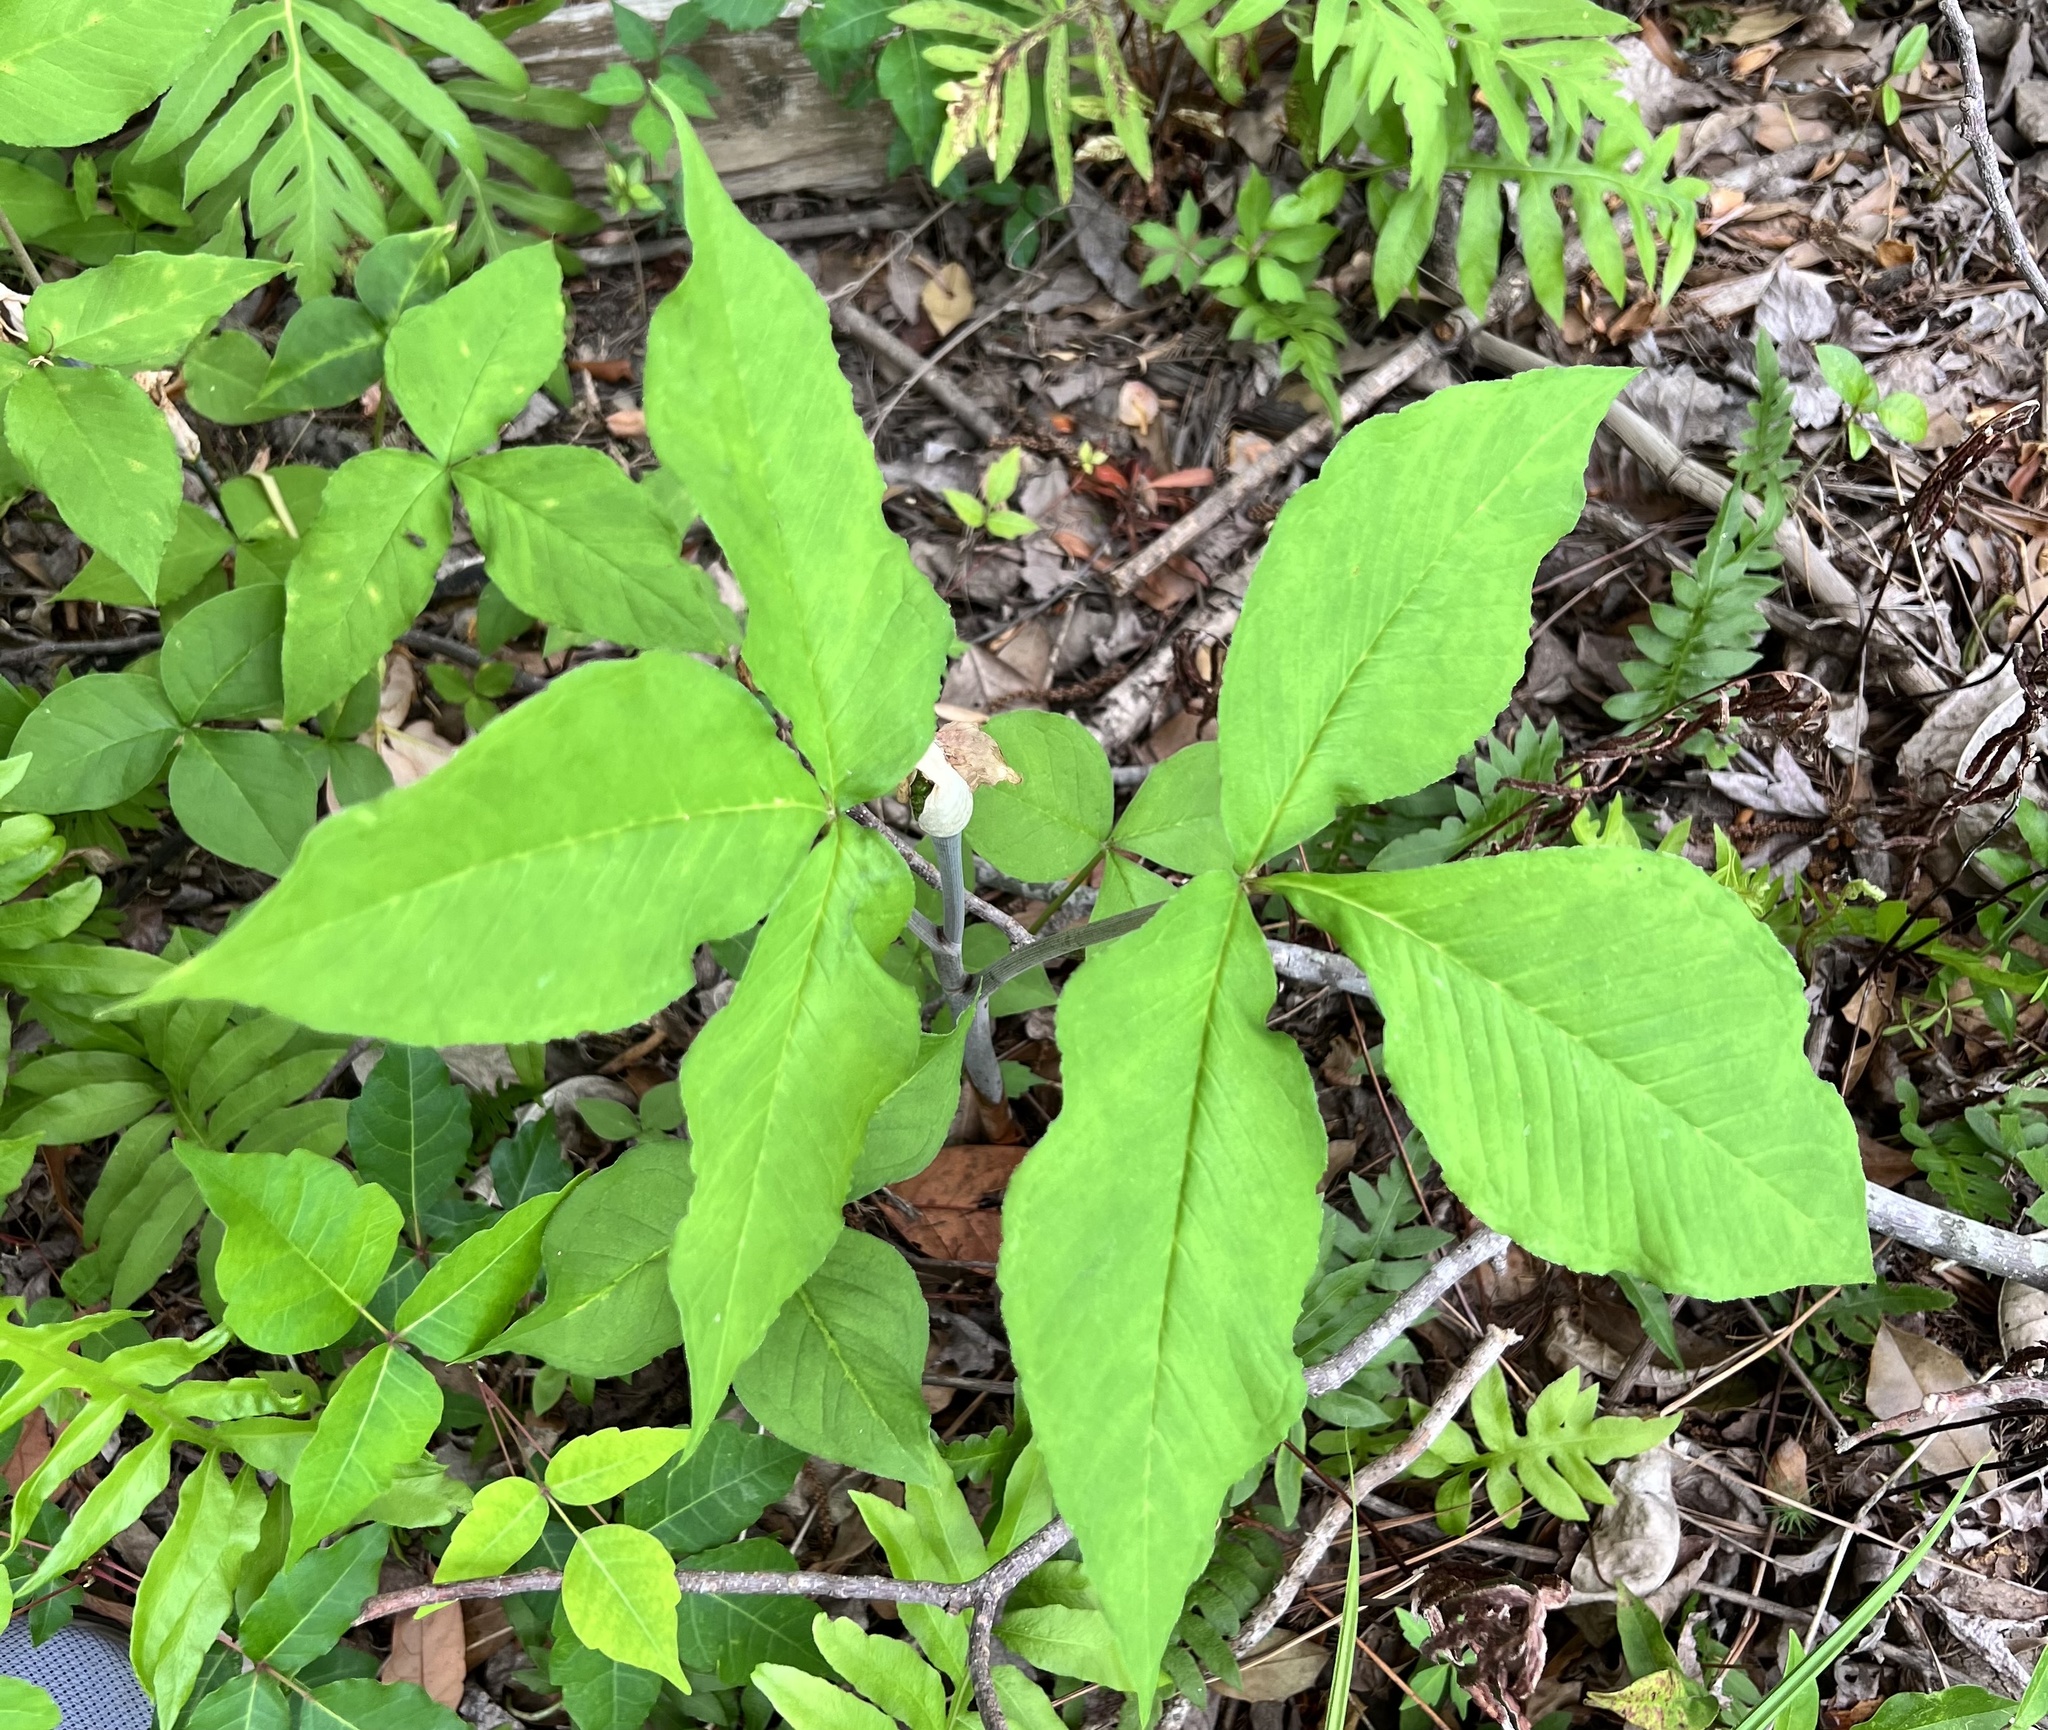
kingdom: Plantae
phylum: Tracheophyta
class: Liliopsida
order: Alismatales
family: Araceae
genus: Arisaema
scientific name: Arisaema triphyllum
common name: Jack-in-the-pulpit
